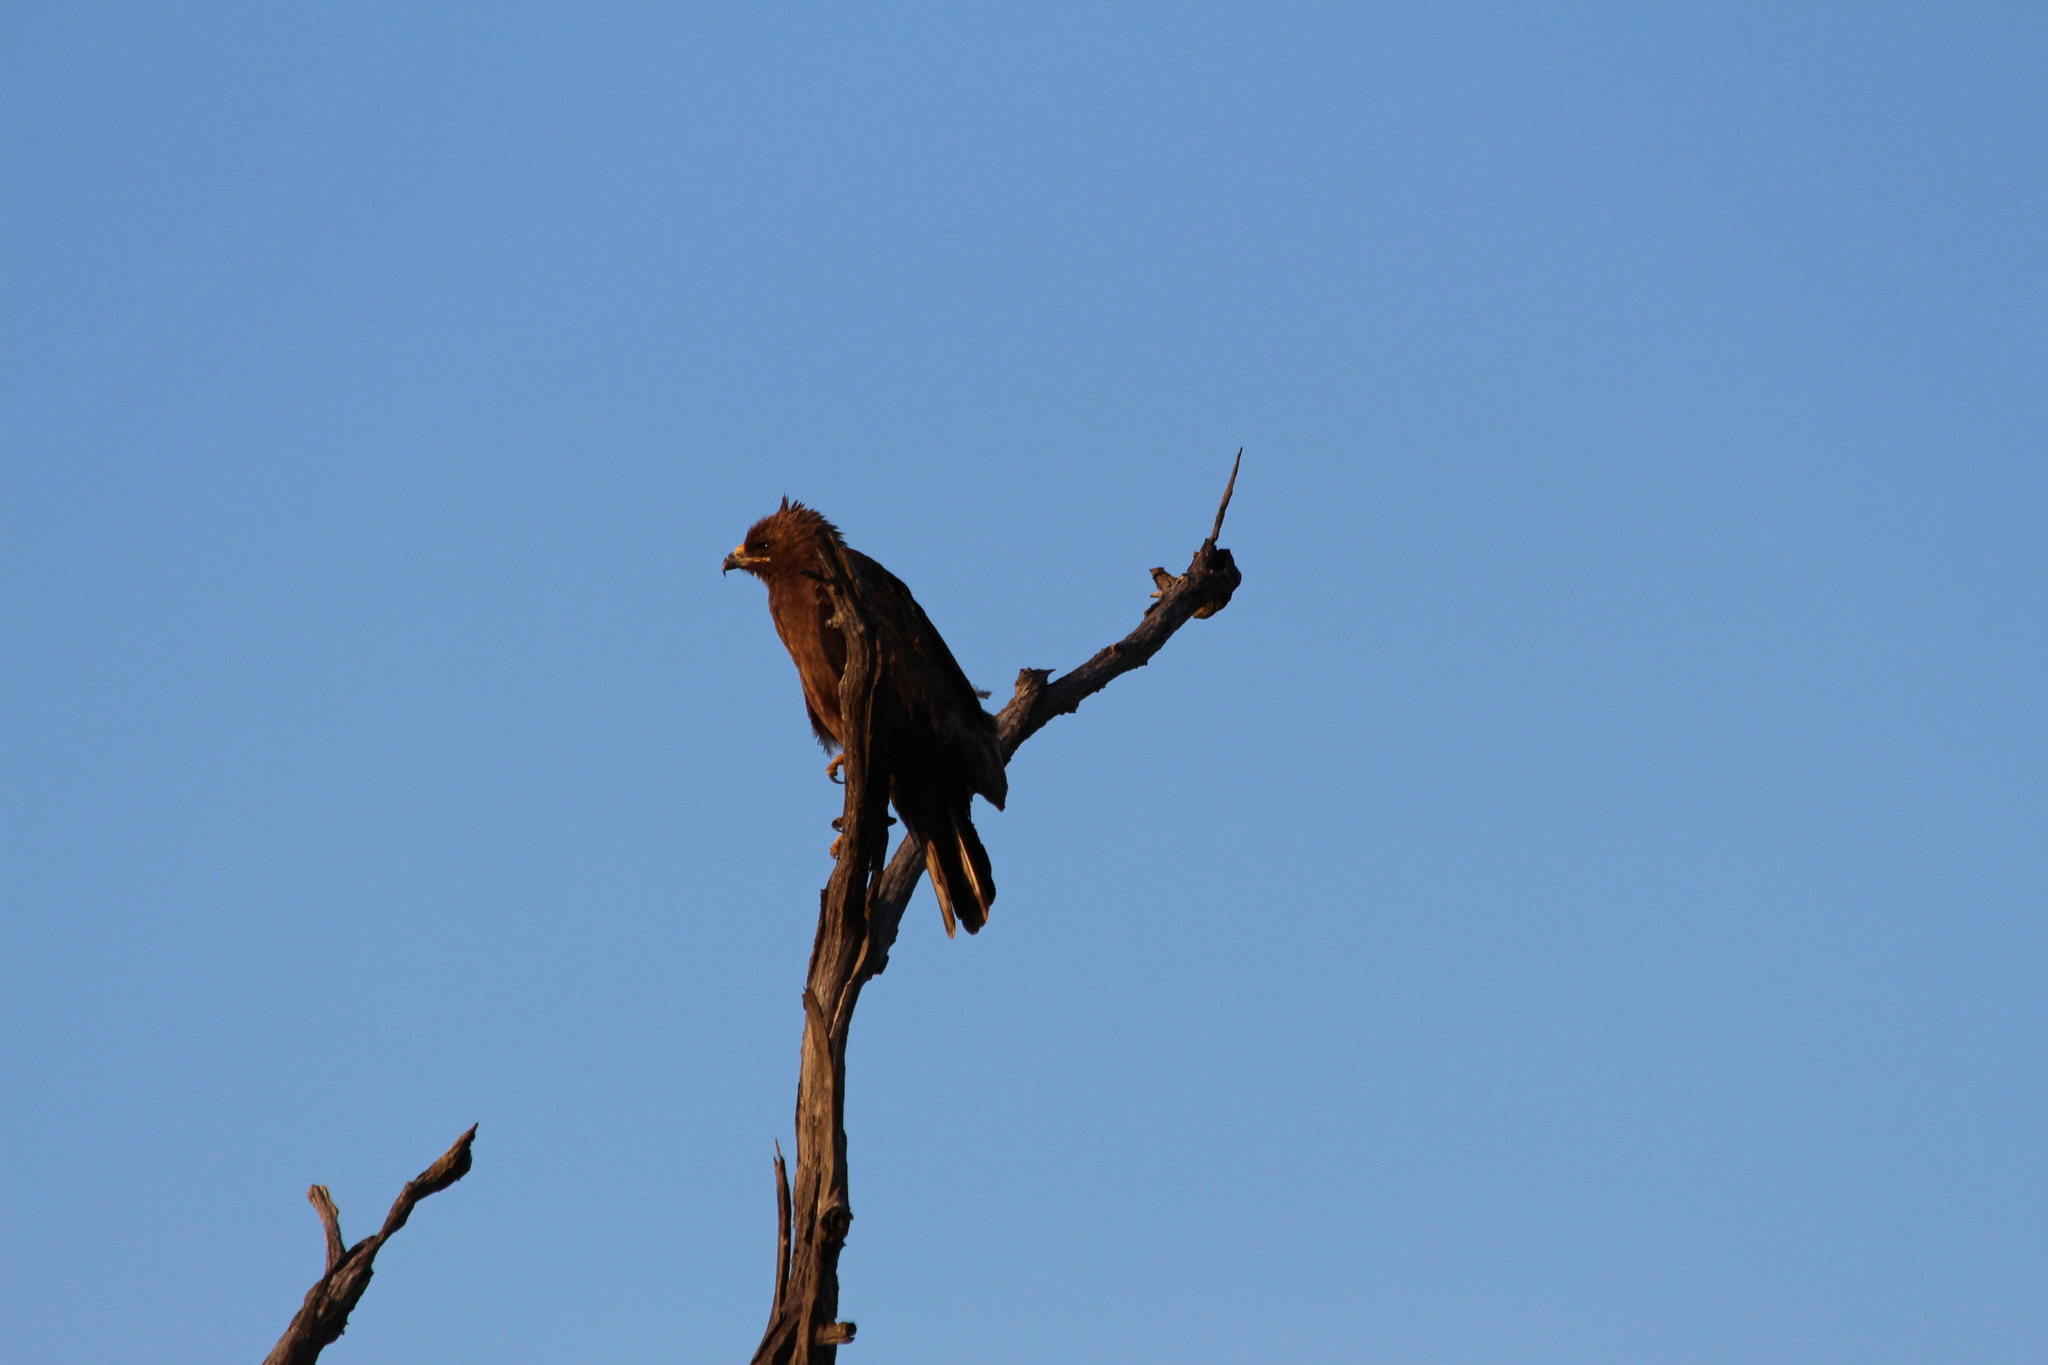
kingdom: Animalia
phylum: Chordata
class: Aves
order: Accipitriformes
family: Accipitridae
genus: Hieraaetus
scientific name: Hieraaetus wahlbergi
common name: Wahlberg's eagle
